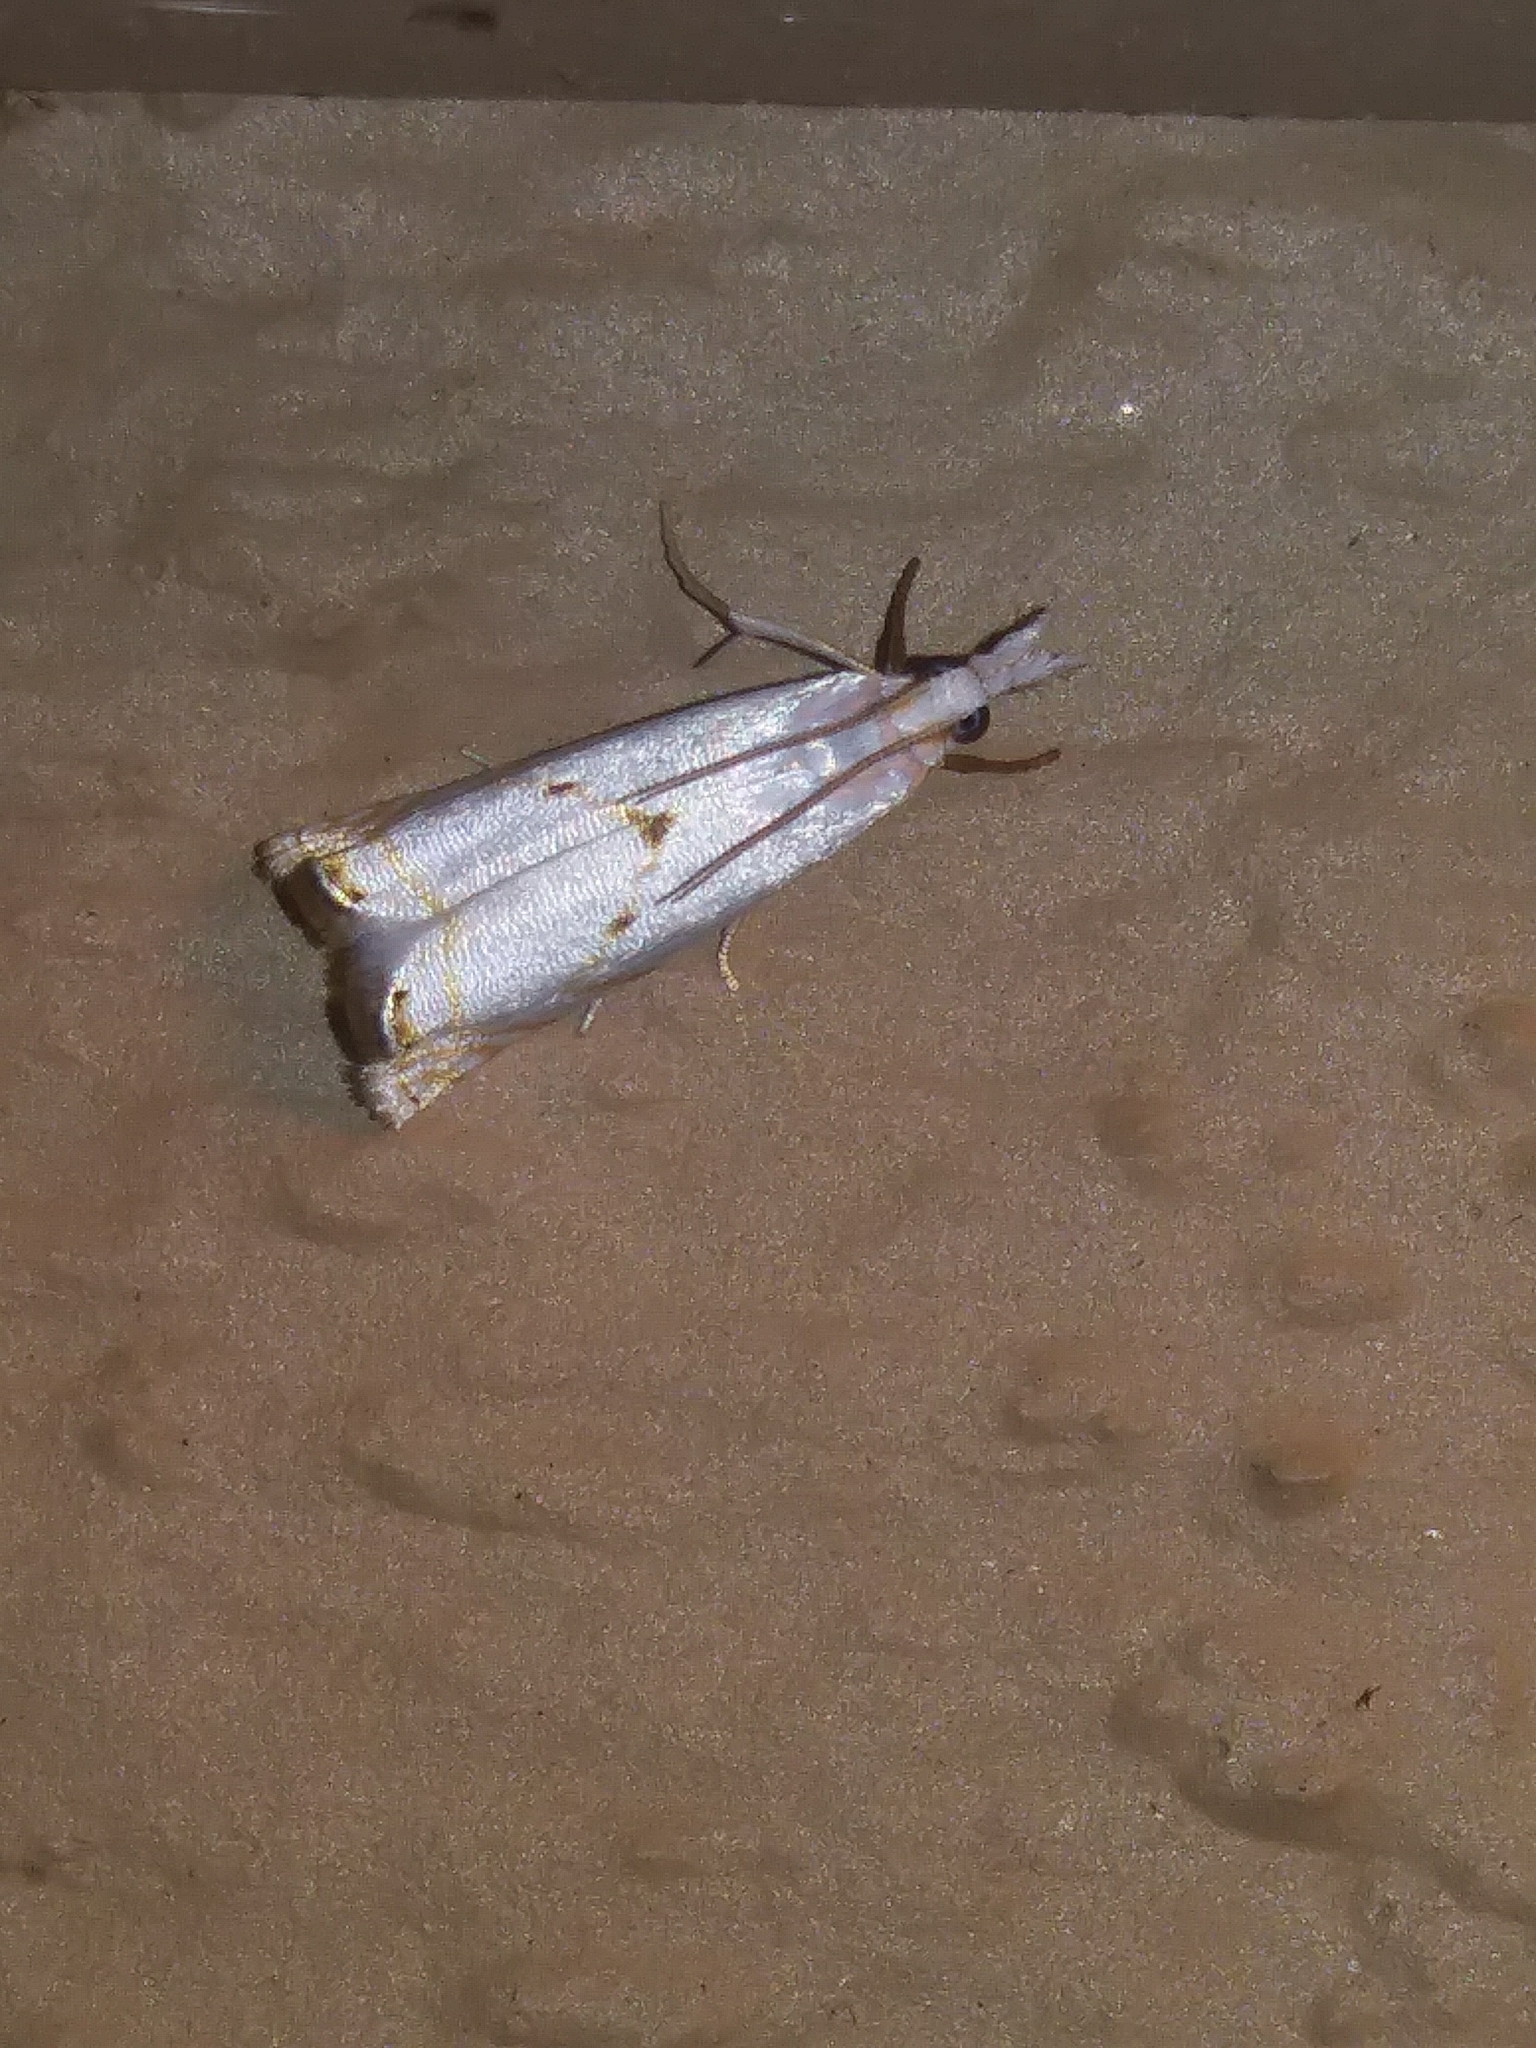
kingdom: Animalia
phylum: Arthropoda
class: Insecta
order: Lepidoptera
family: Crambidae
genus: Microcrambus
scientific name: Microcrambus biguttellus
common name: Gold-stripe grass-veneer moth
